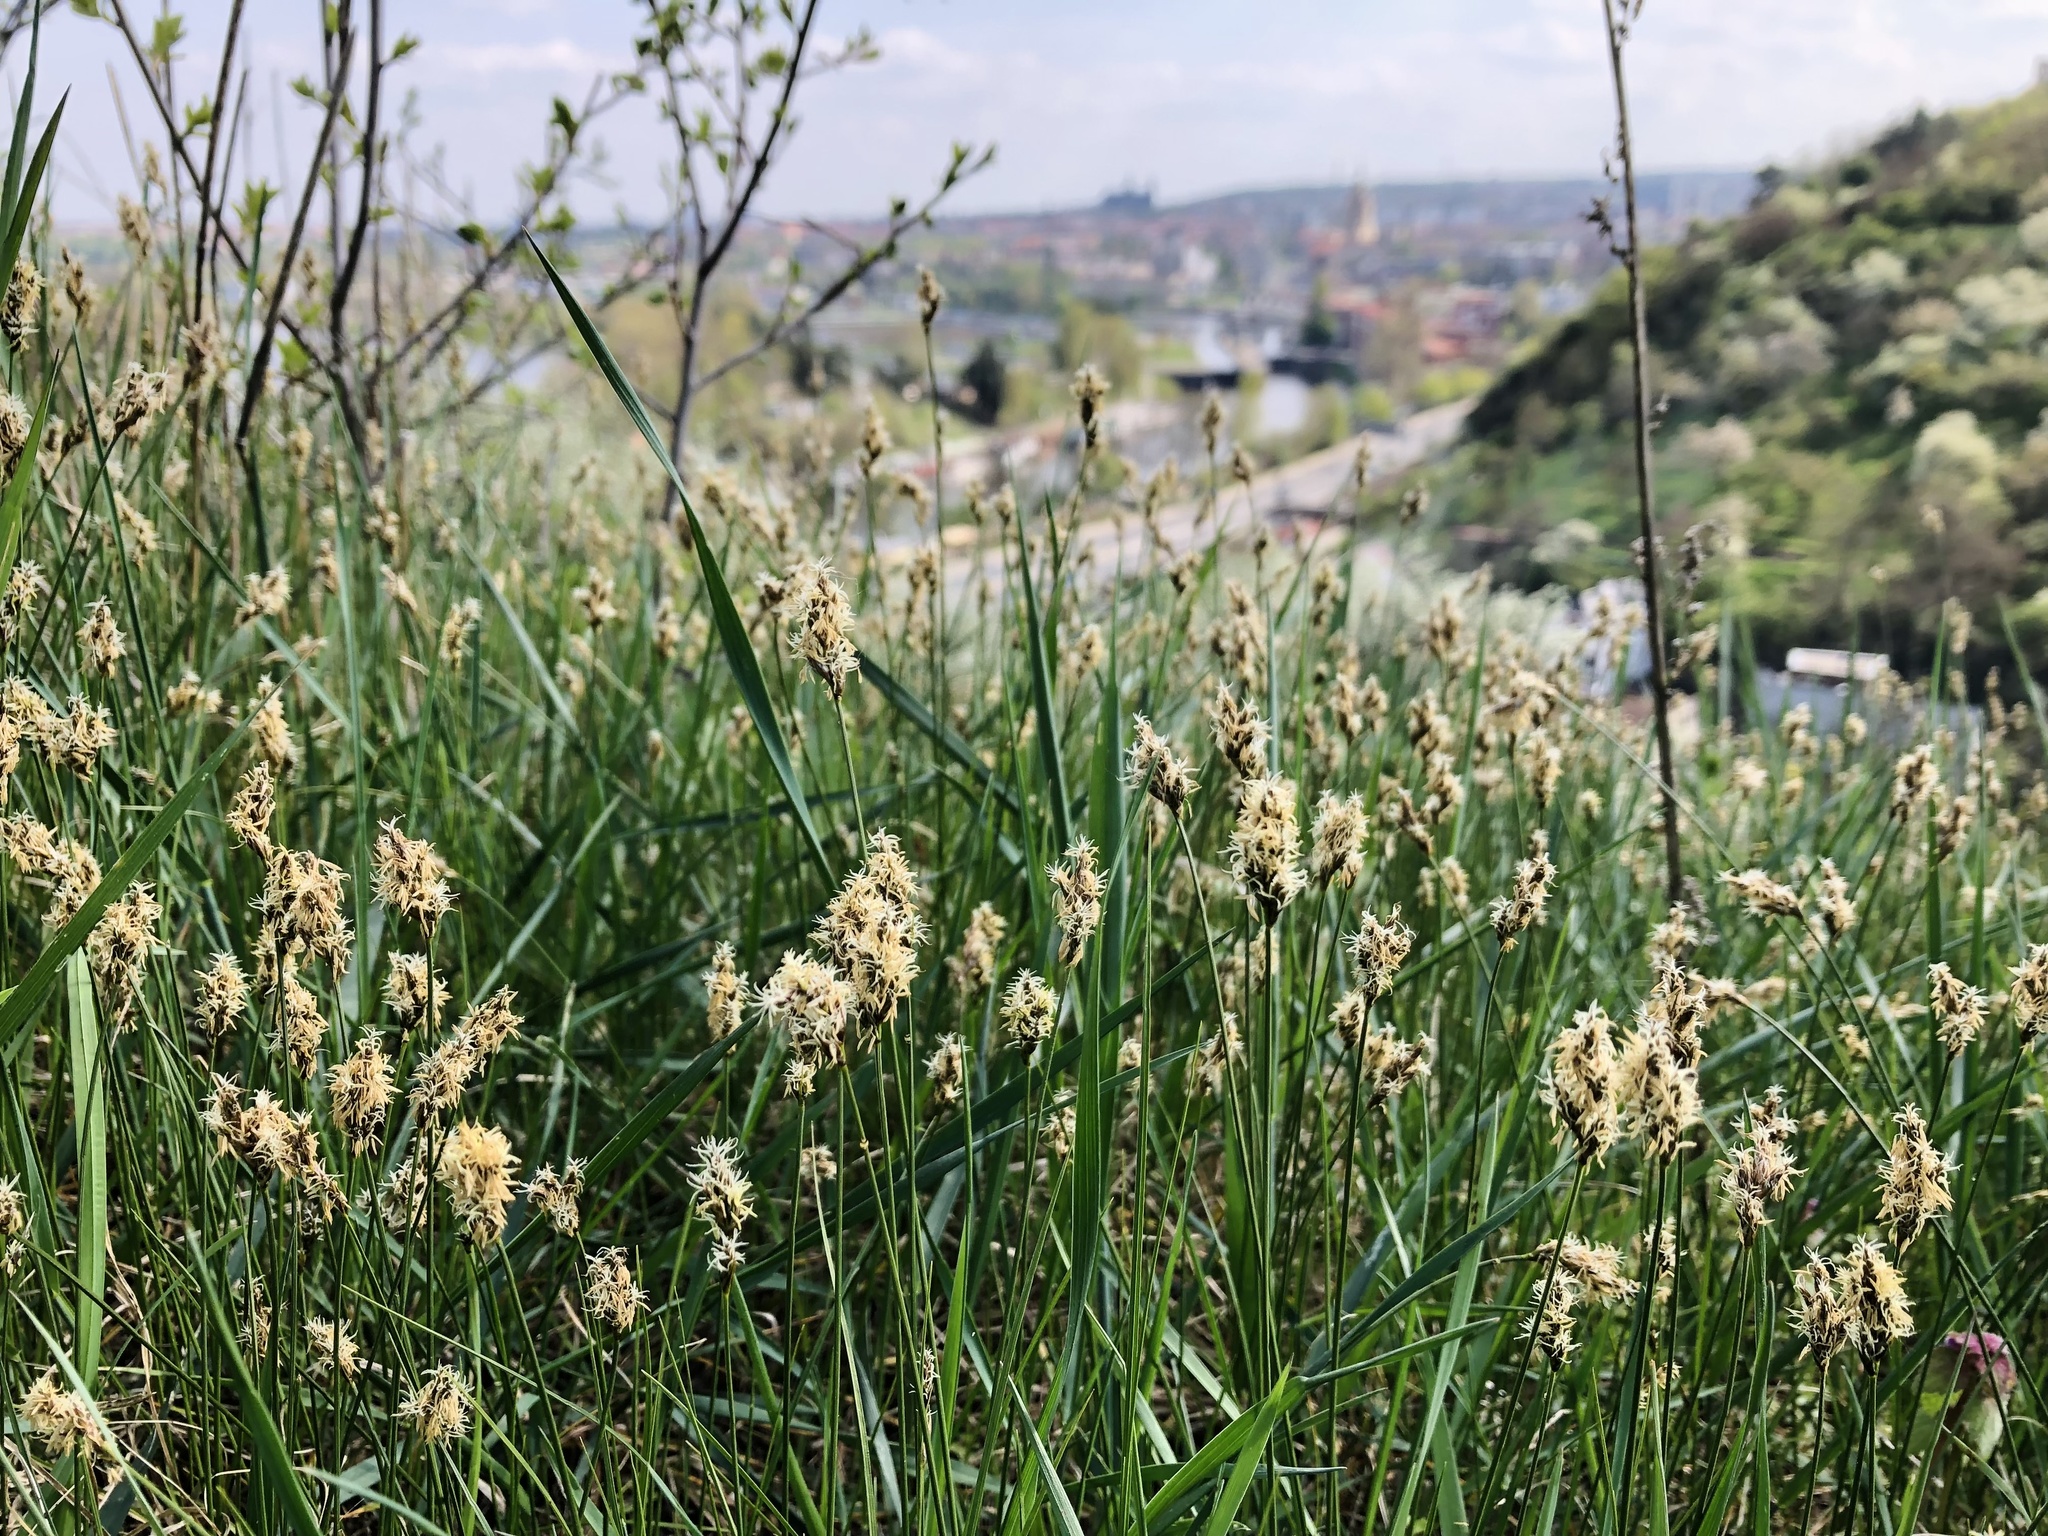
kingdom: Plantae
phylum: Tracheophyta
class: Liliopsida
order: Poales
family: Cyperaceae
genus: Carex
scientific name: Carex praecox
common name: Early sedge
